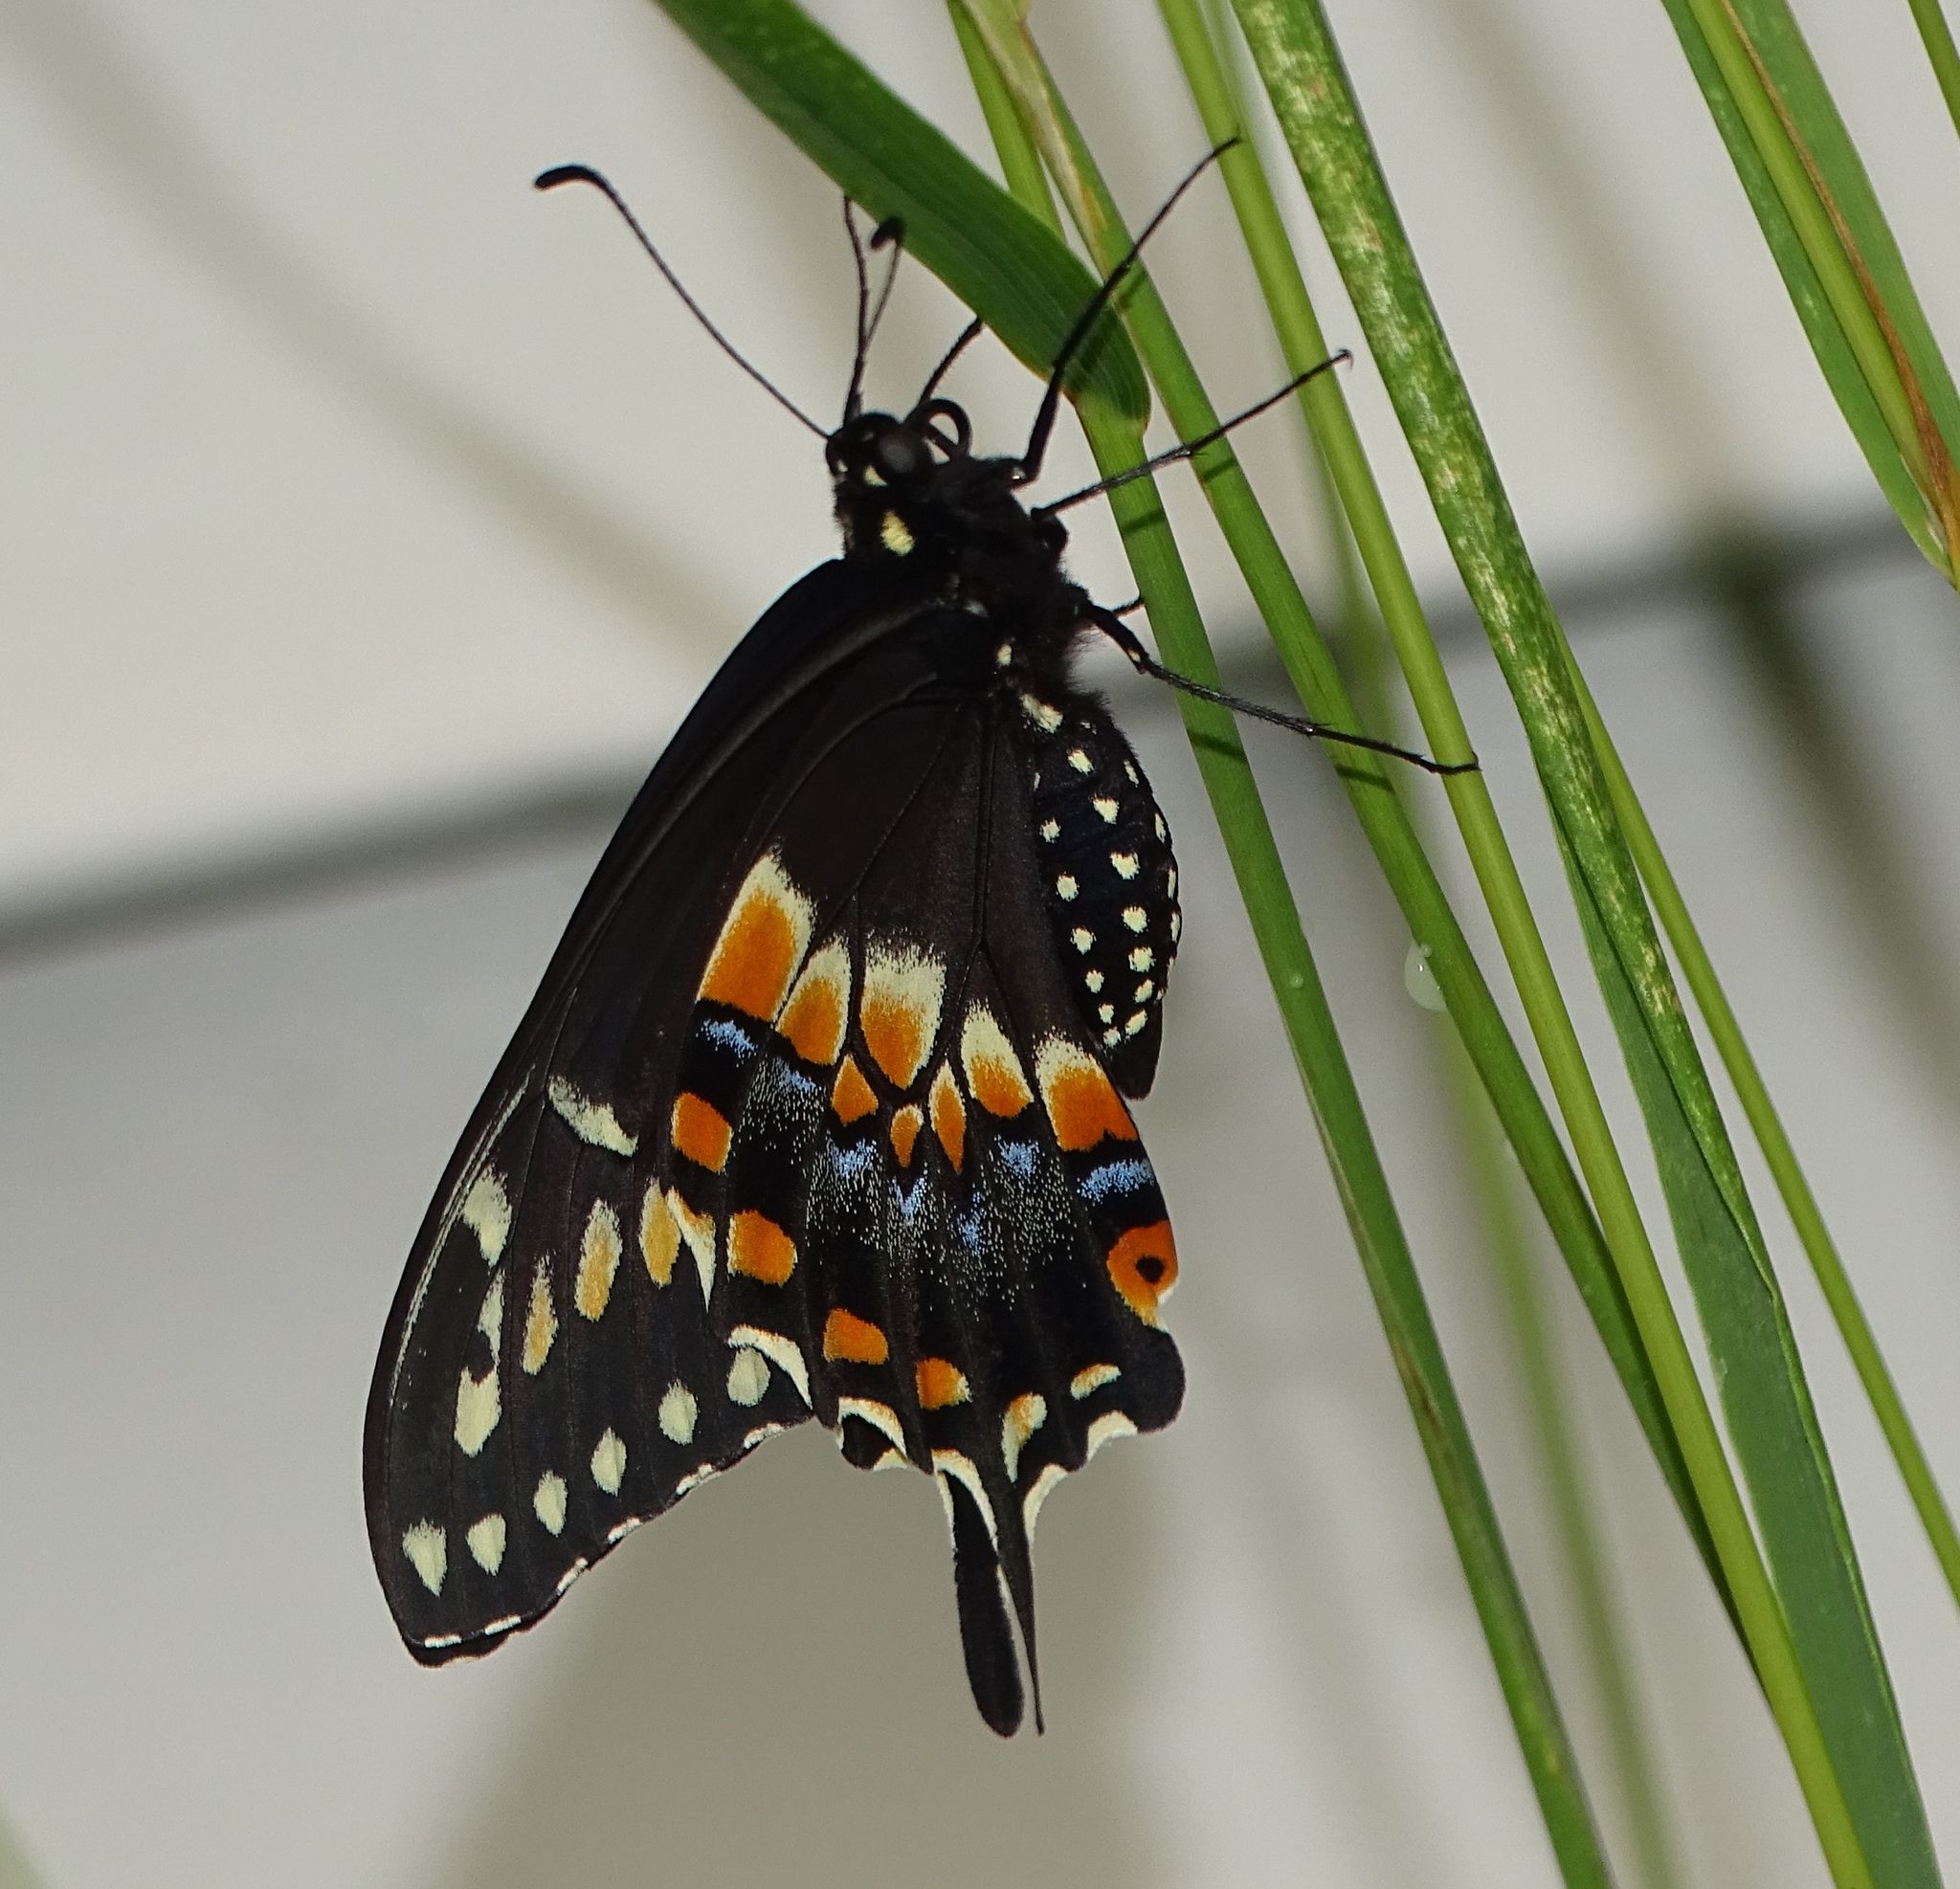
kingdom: Animalia
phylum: Arthropoda
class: Insecta
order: Lepidoptera
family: Papilionidae
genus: Papilio
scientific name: Papilio polyxenes
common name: Black swallowtail
